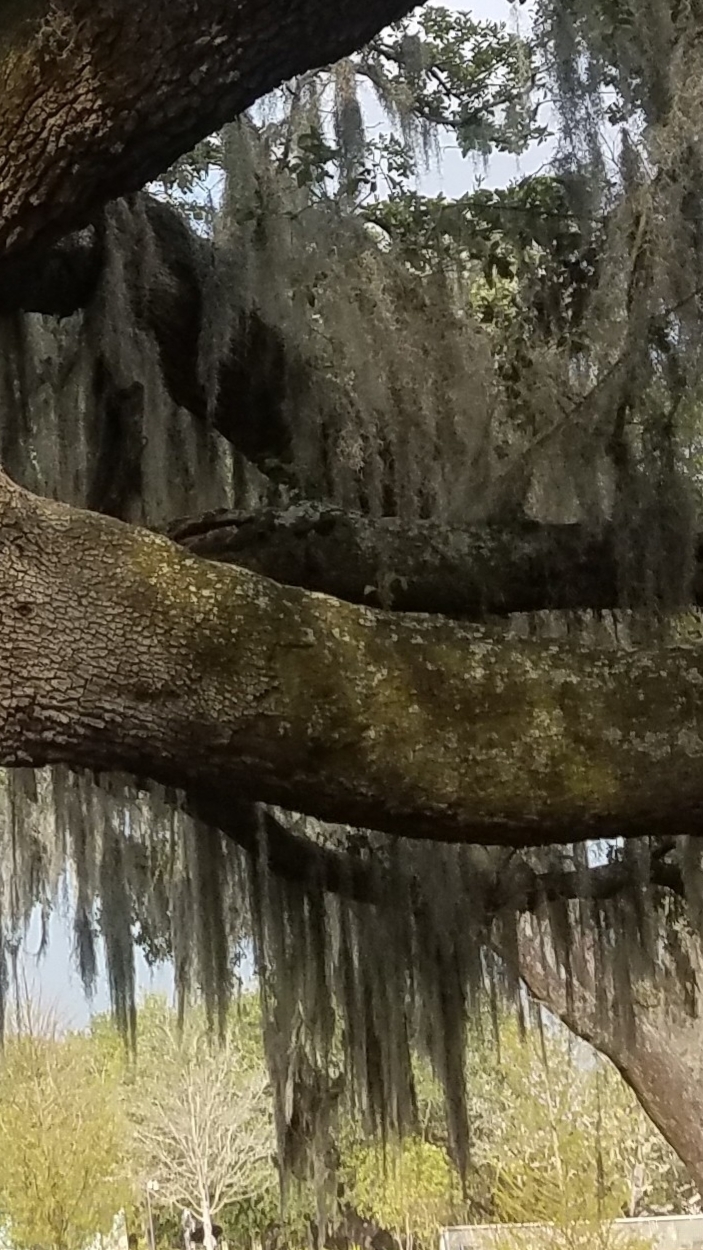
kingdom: Plantae
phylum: Tracheophyta
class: Liliopsida
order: Poales
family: Bromeliaceae
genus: Tillandsia
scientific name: Tillandsia usneoides
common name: Spanish moss
